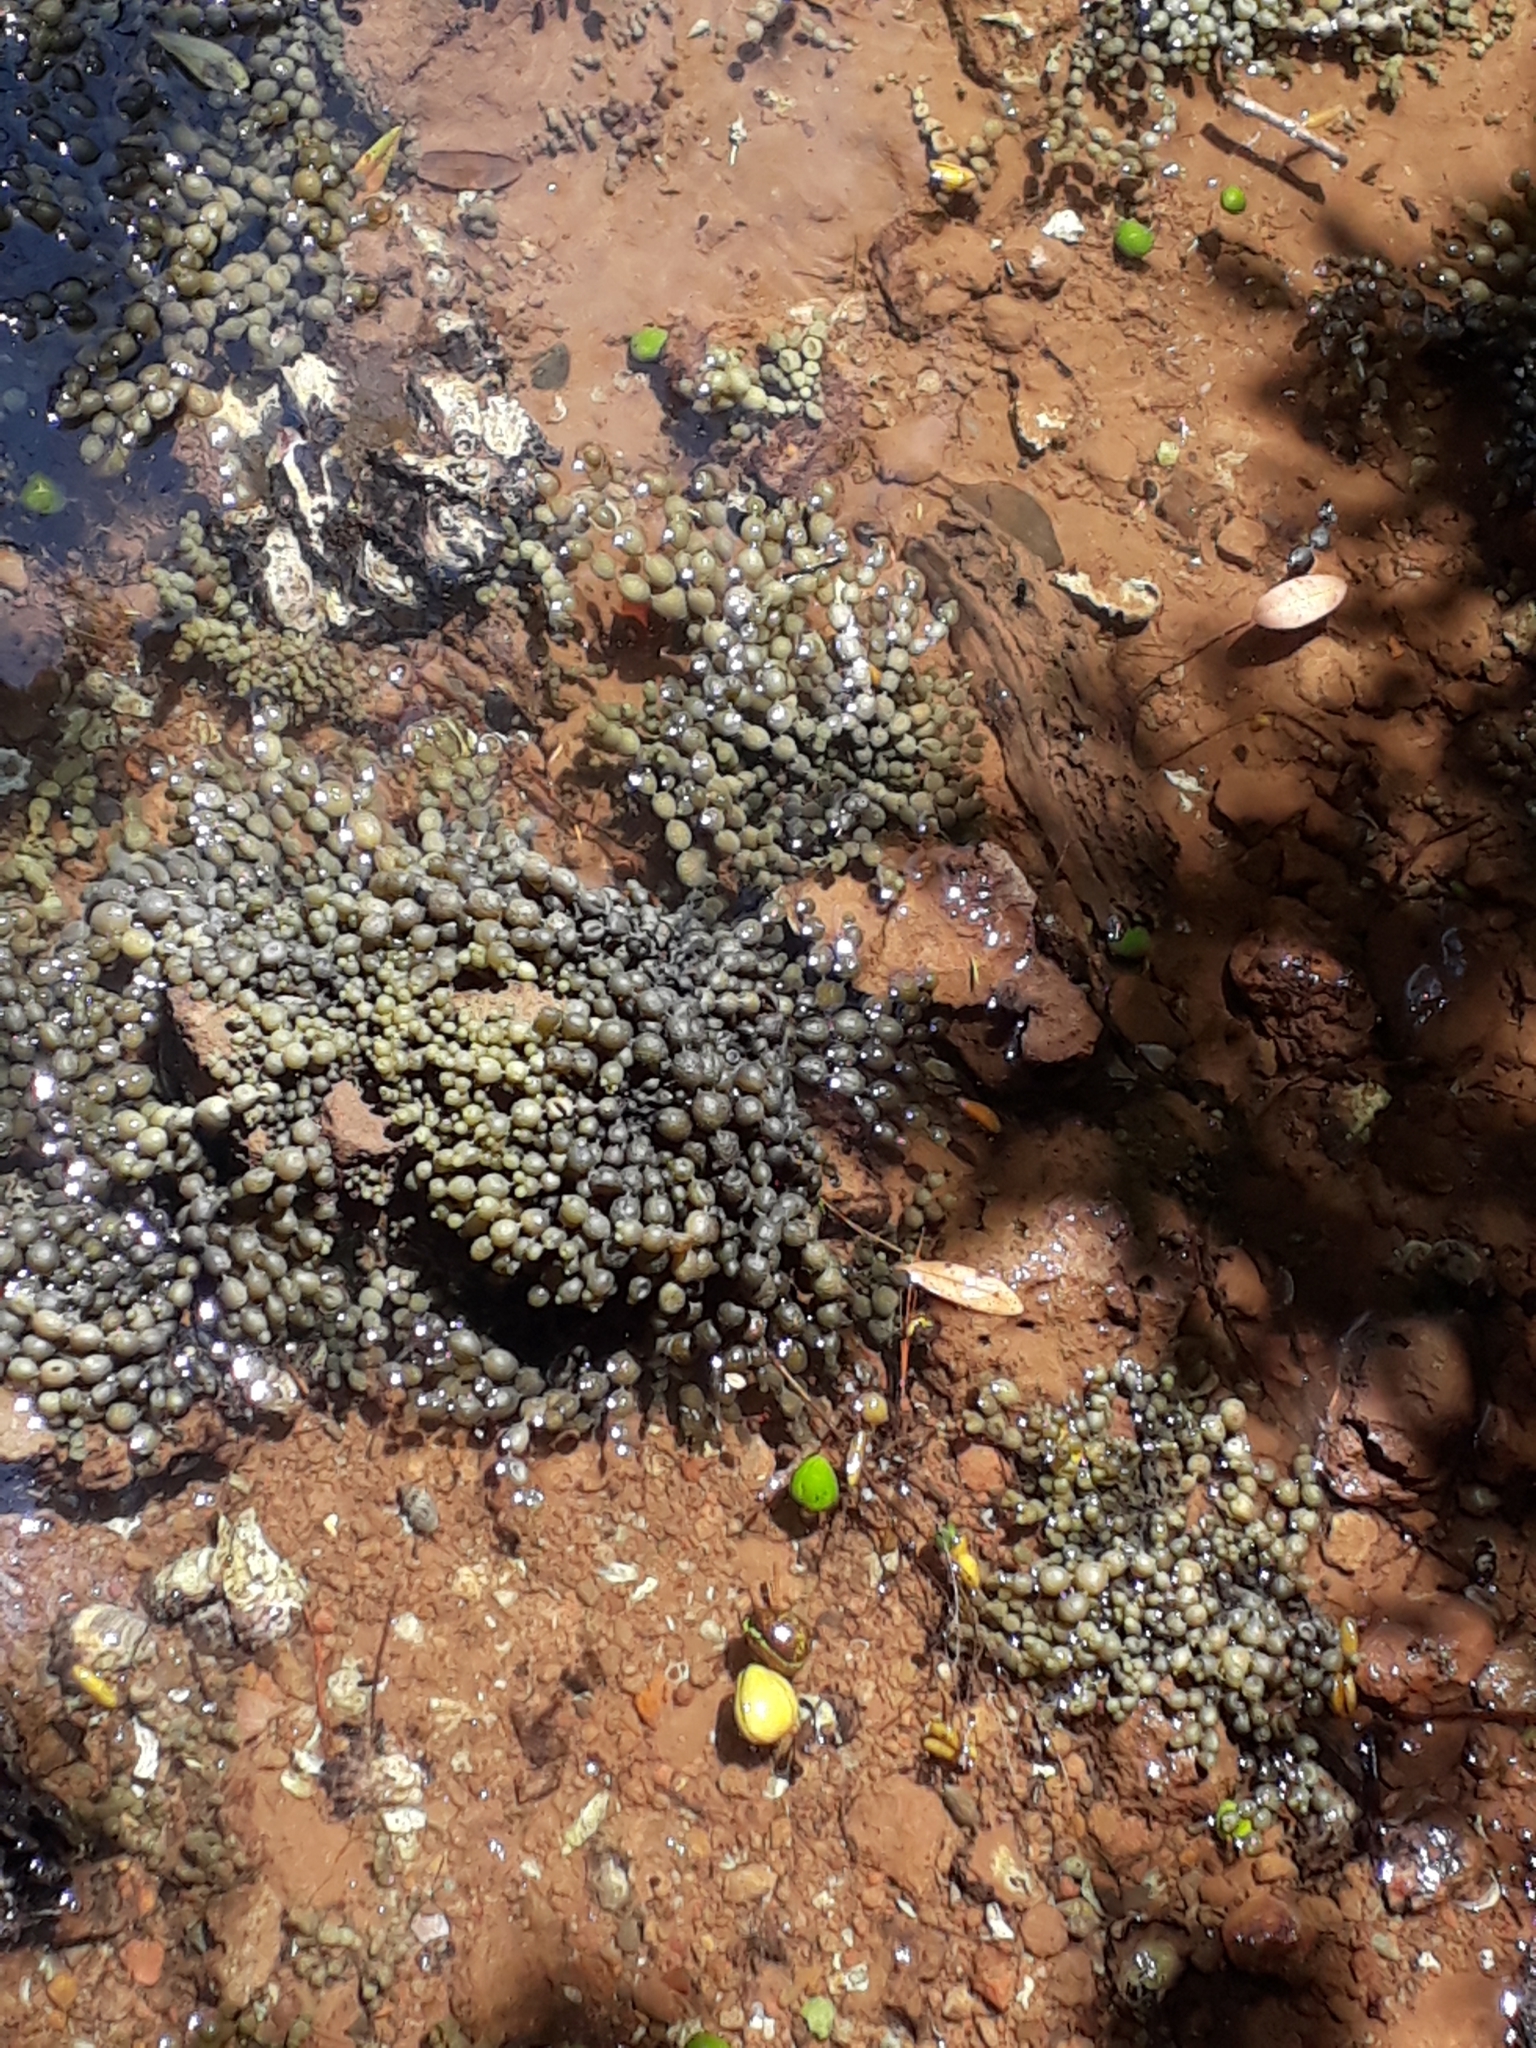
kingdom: Chromista
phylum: Ochrophyta
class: Phaeophyceae
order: Fucales
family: Hormosiraceae
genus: Hormosira
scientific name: Hormosira banksii
